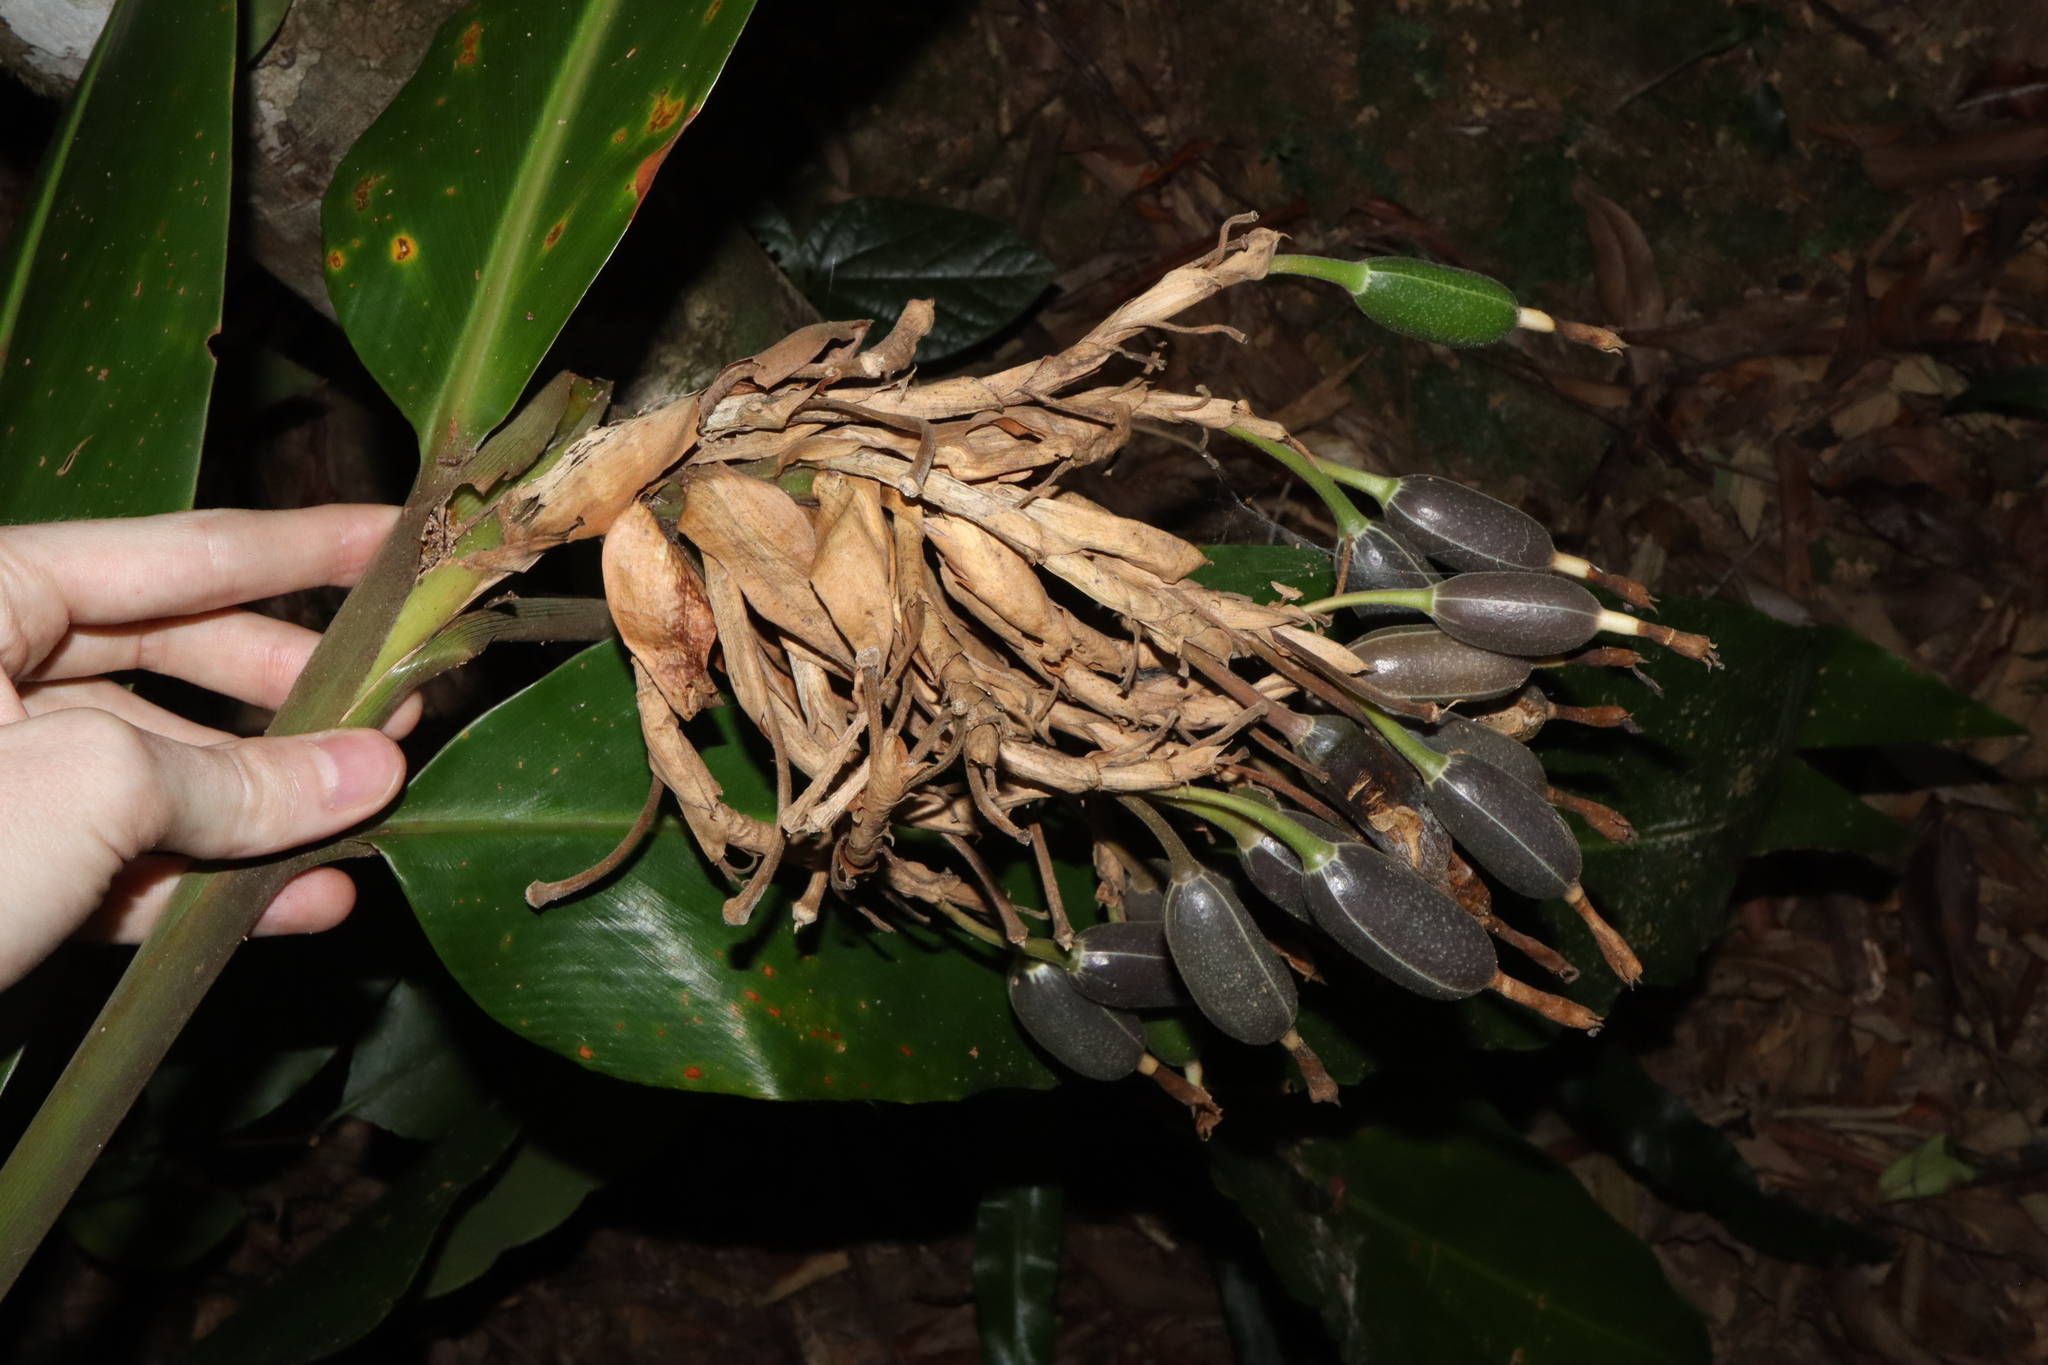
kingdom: Plantae
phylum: Tracheophyta
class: Liliopsida
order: Zingiberales
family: Zingiberaceae
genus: Alpinia
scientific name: Alpinia arctiflora
